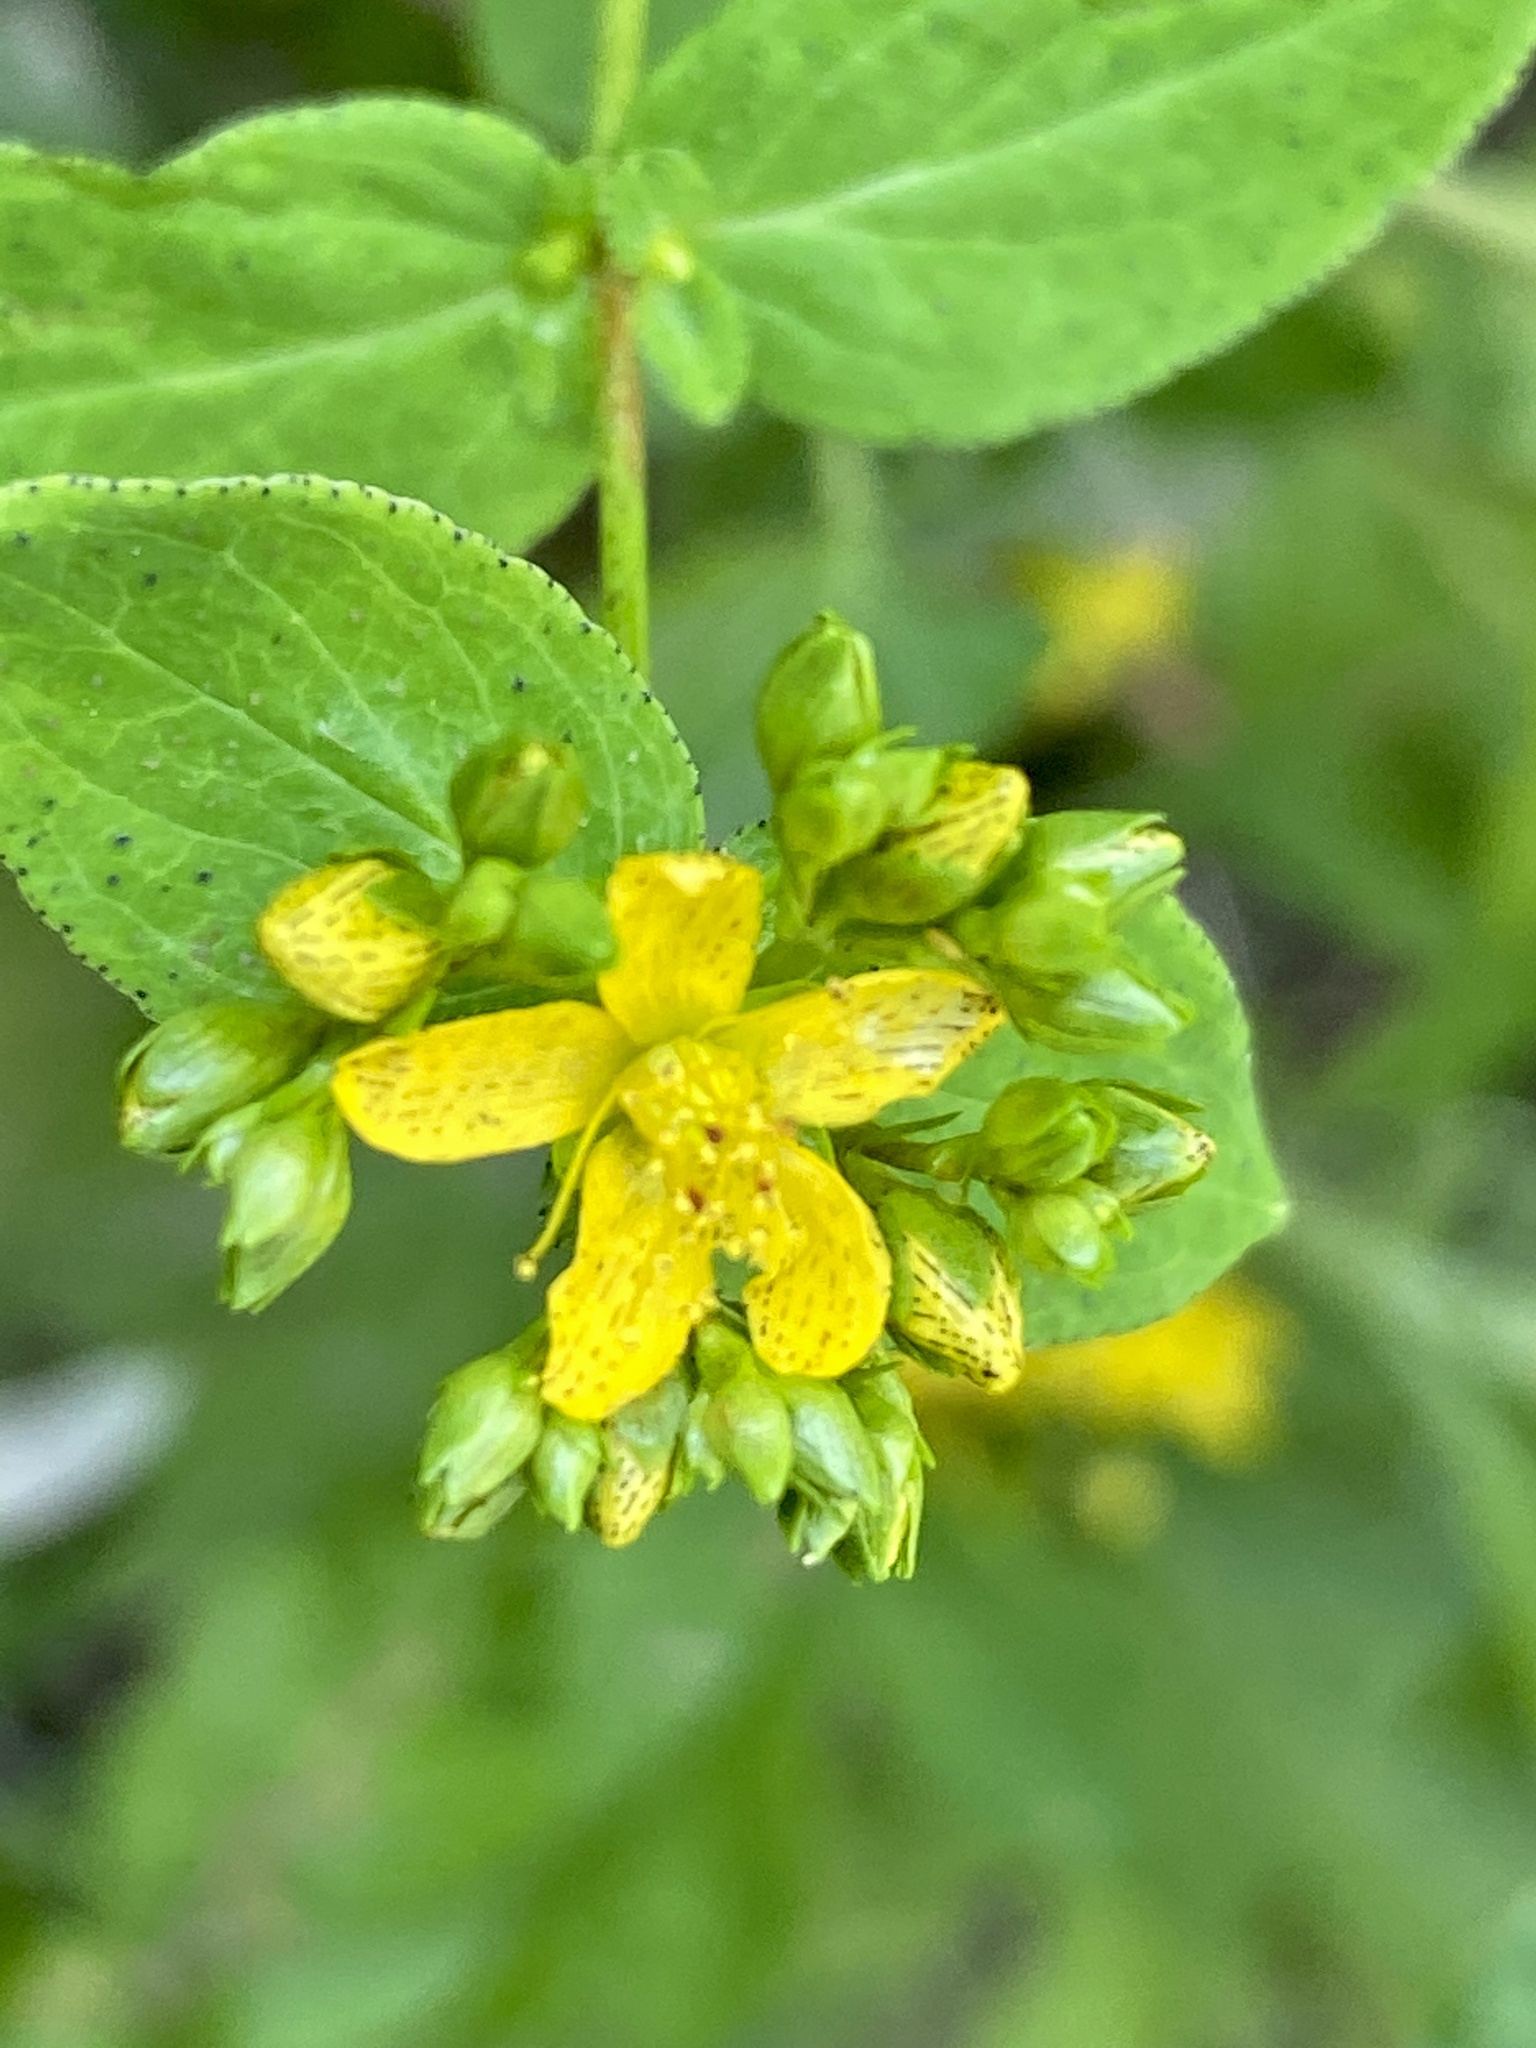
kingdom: Plantae
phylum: Tracheophyta
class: Magnoliopsida
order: Malpighiales
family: Hypericaceae
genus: Hypericum
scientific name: Hypericum punctatum
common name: Spotted st. john's-wort
